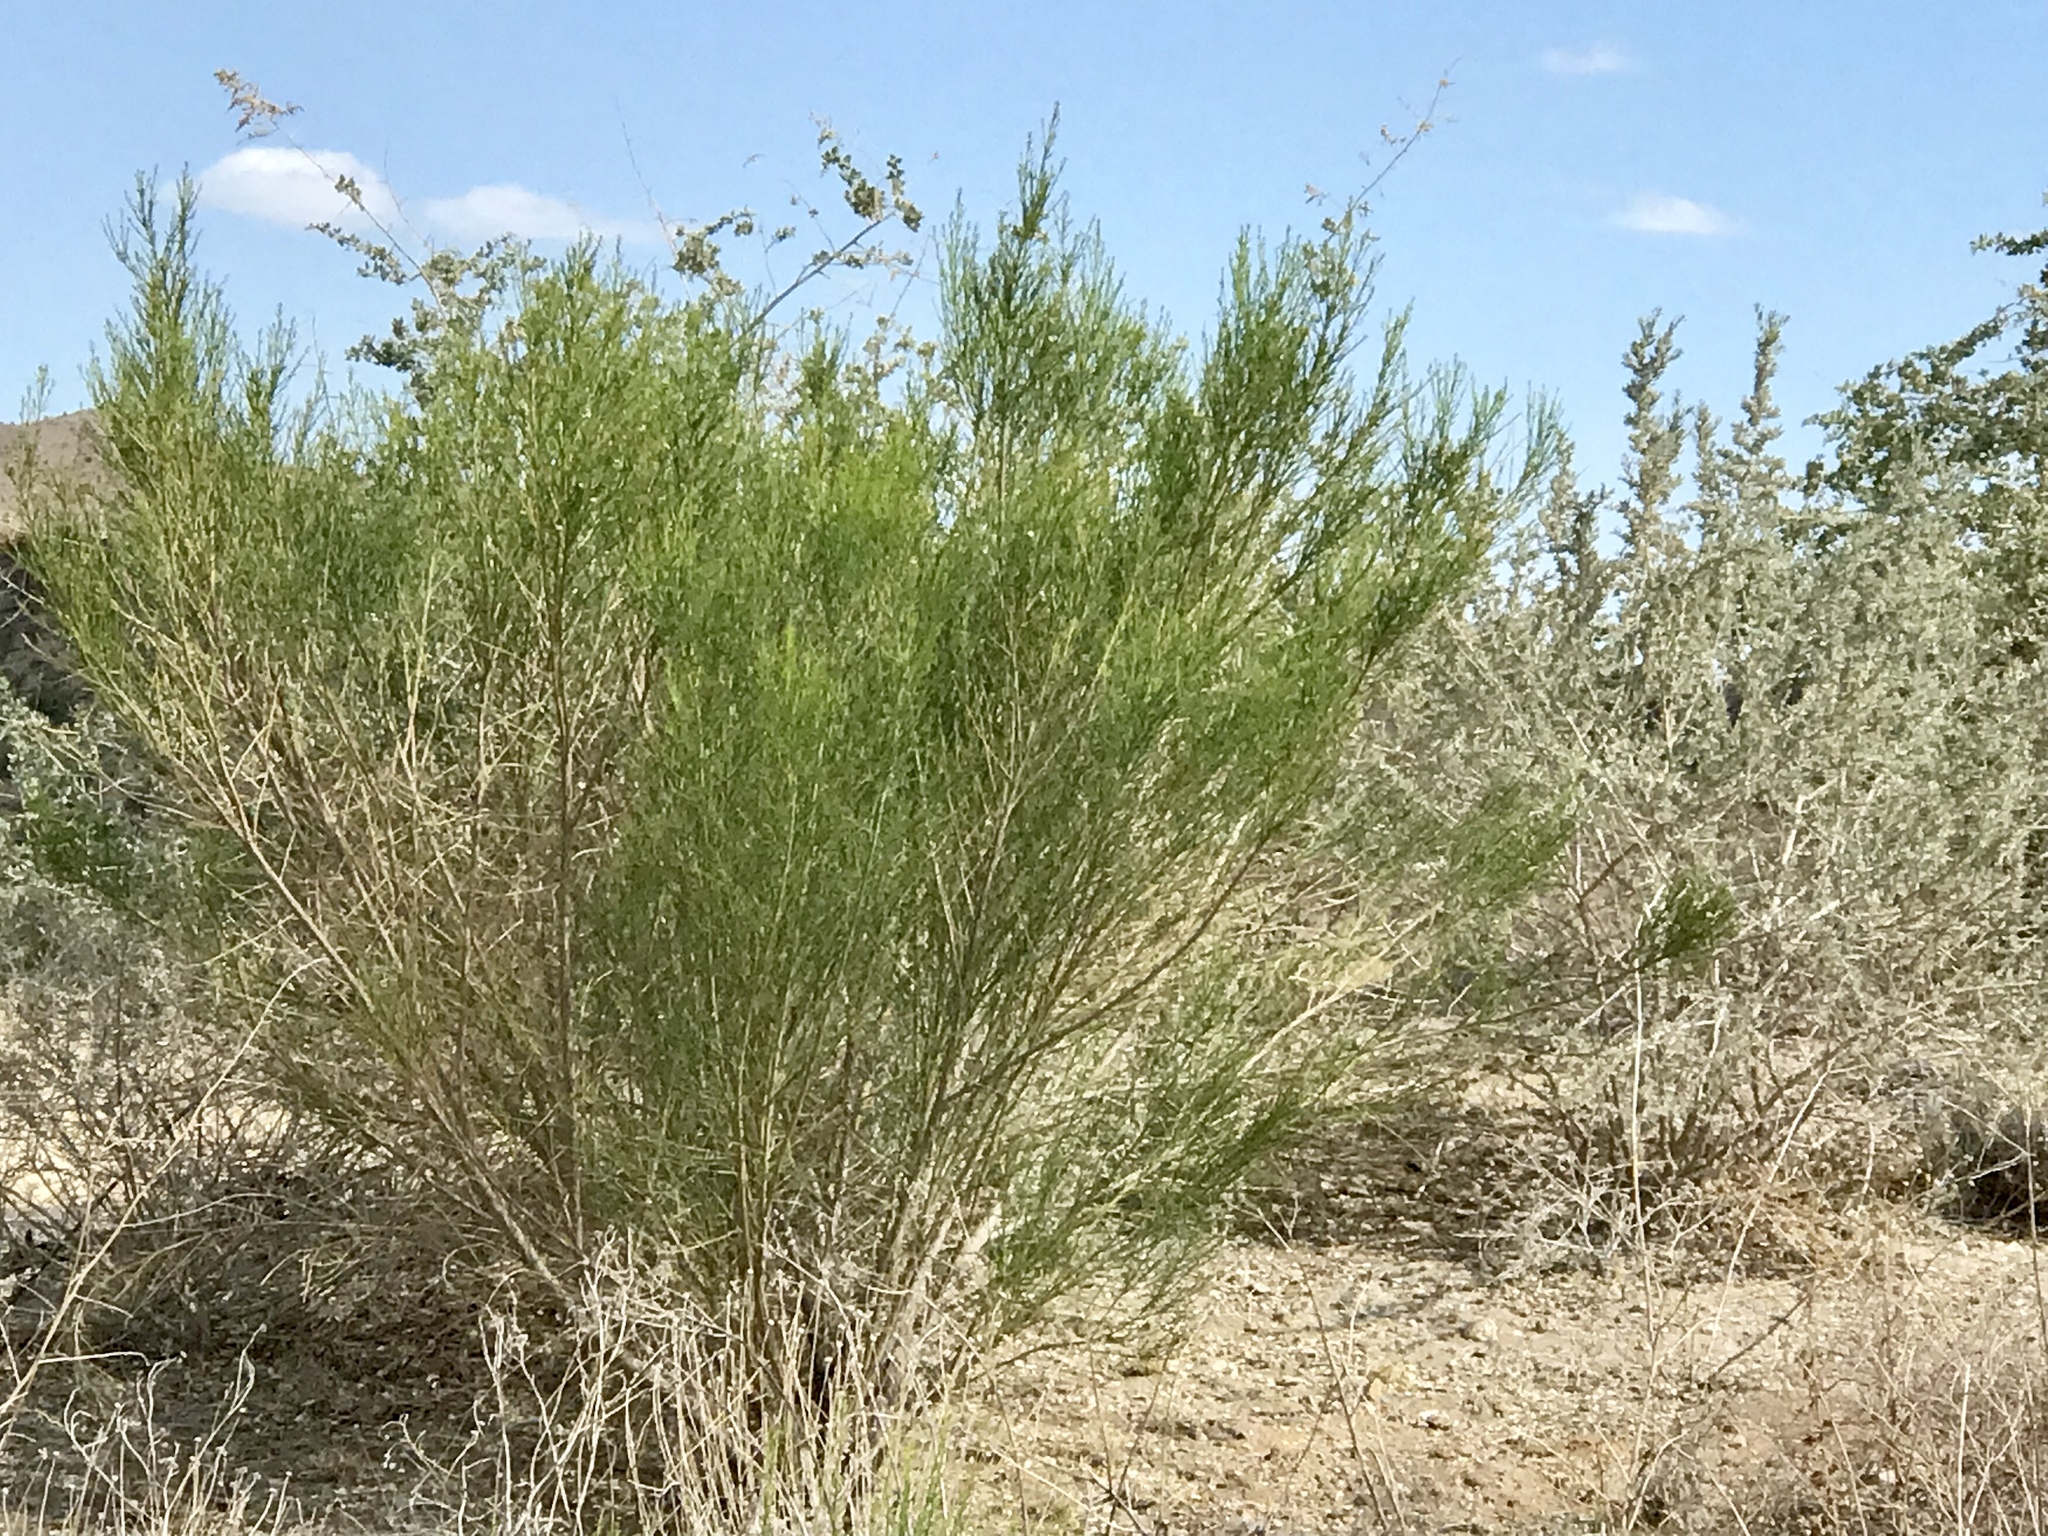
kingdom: Plantae
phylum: Tracheophyta
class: Magnoliopsida
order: Asterales
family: Asteraceae
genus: Baccharis
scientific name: Baccharis sarothroides
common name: Desert-broom
